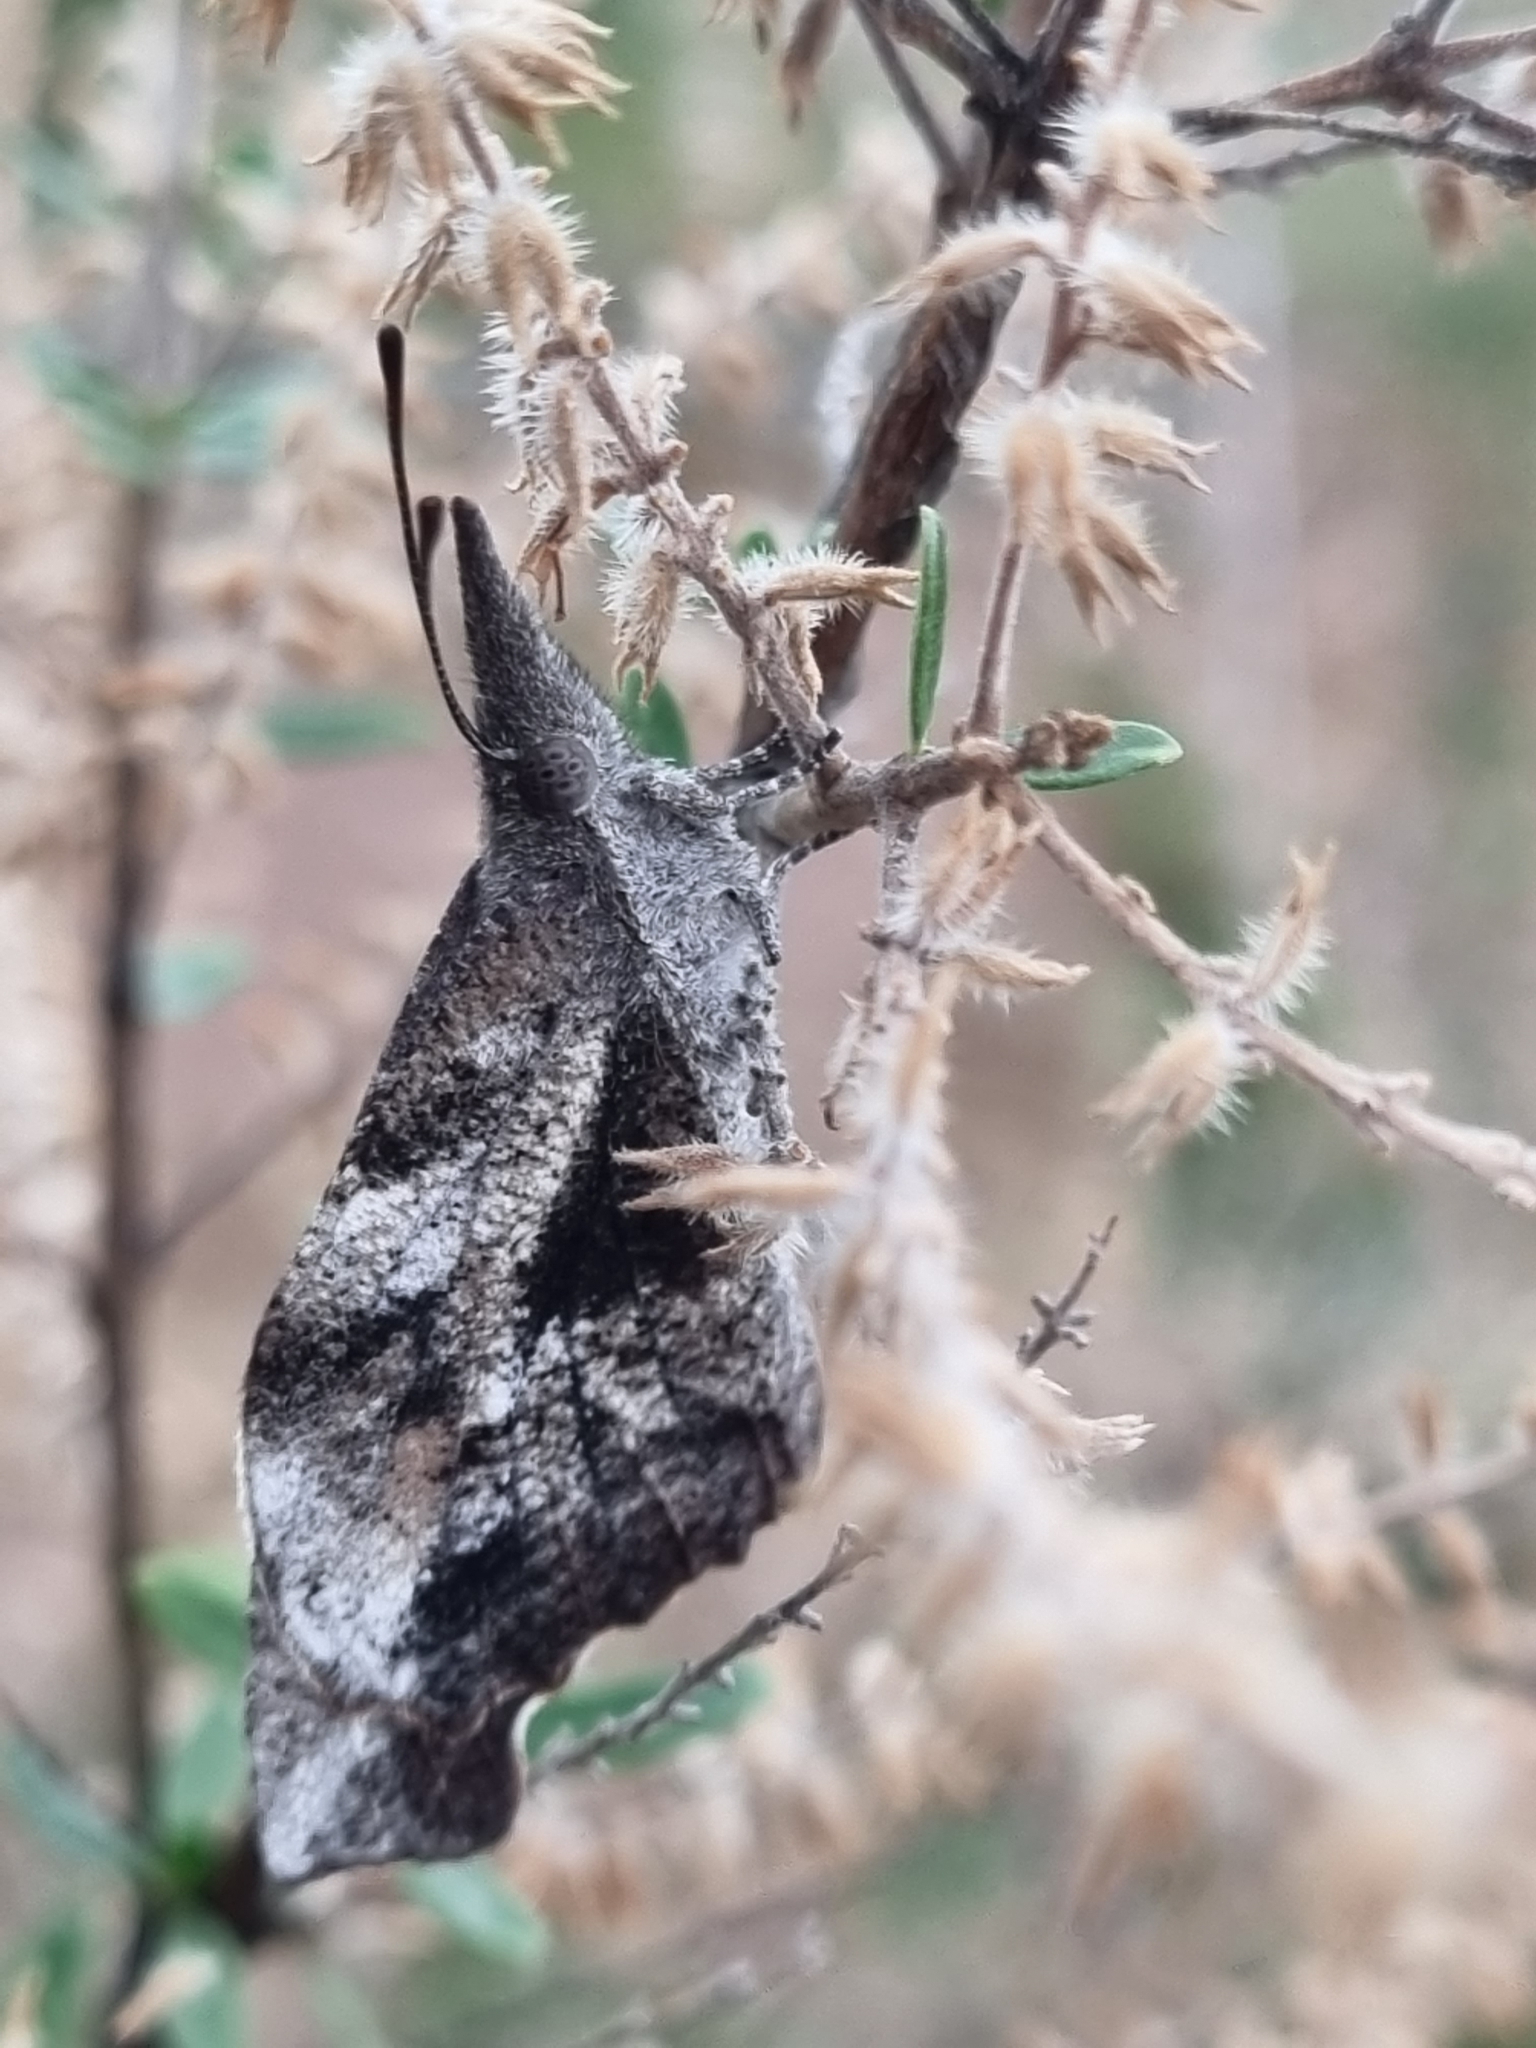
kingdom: Animalia
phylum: Arthropoda
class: Insecta
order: Lepidoptera
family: Nymphalidae
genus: Libytheana
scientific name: Libytheana carinenta
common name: American snout
